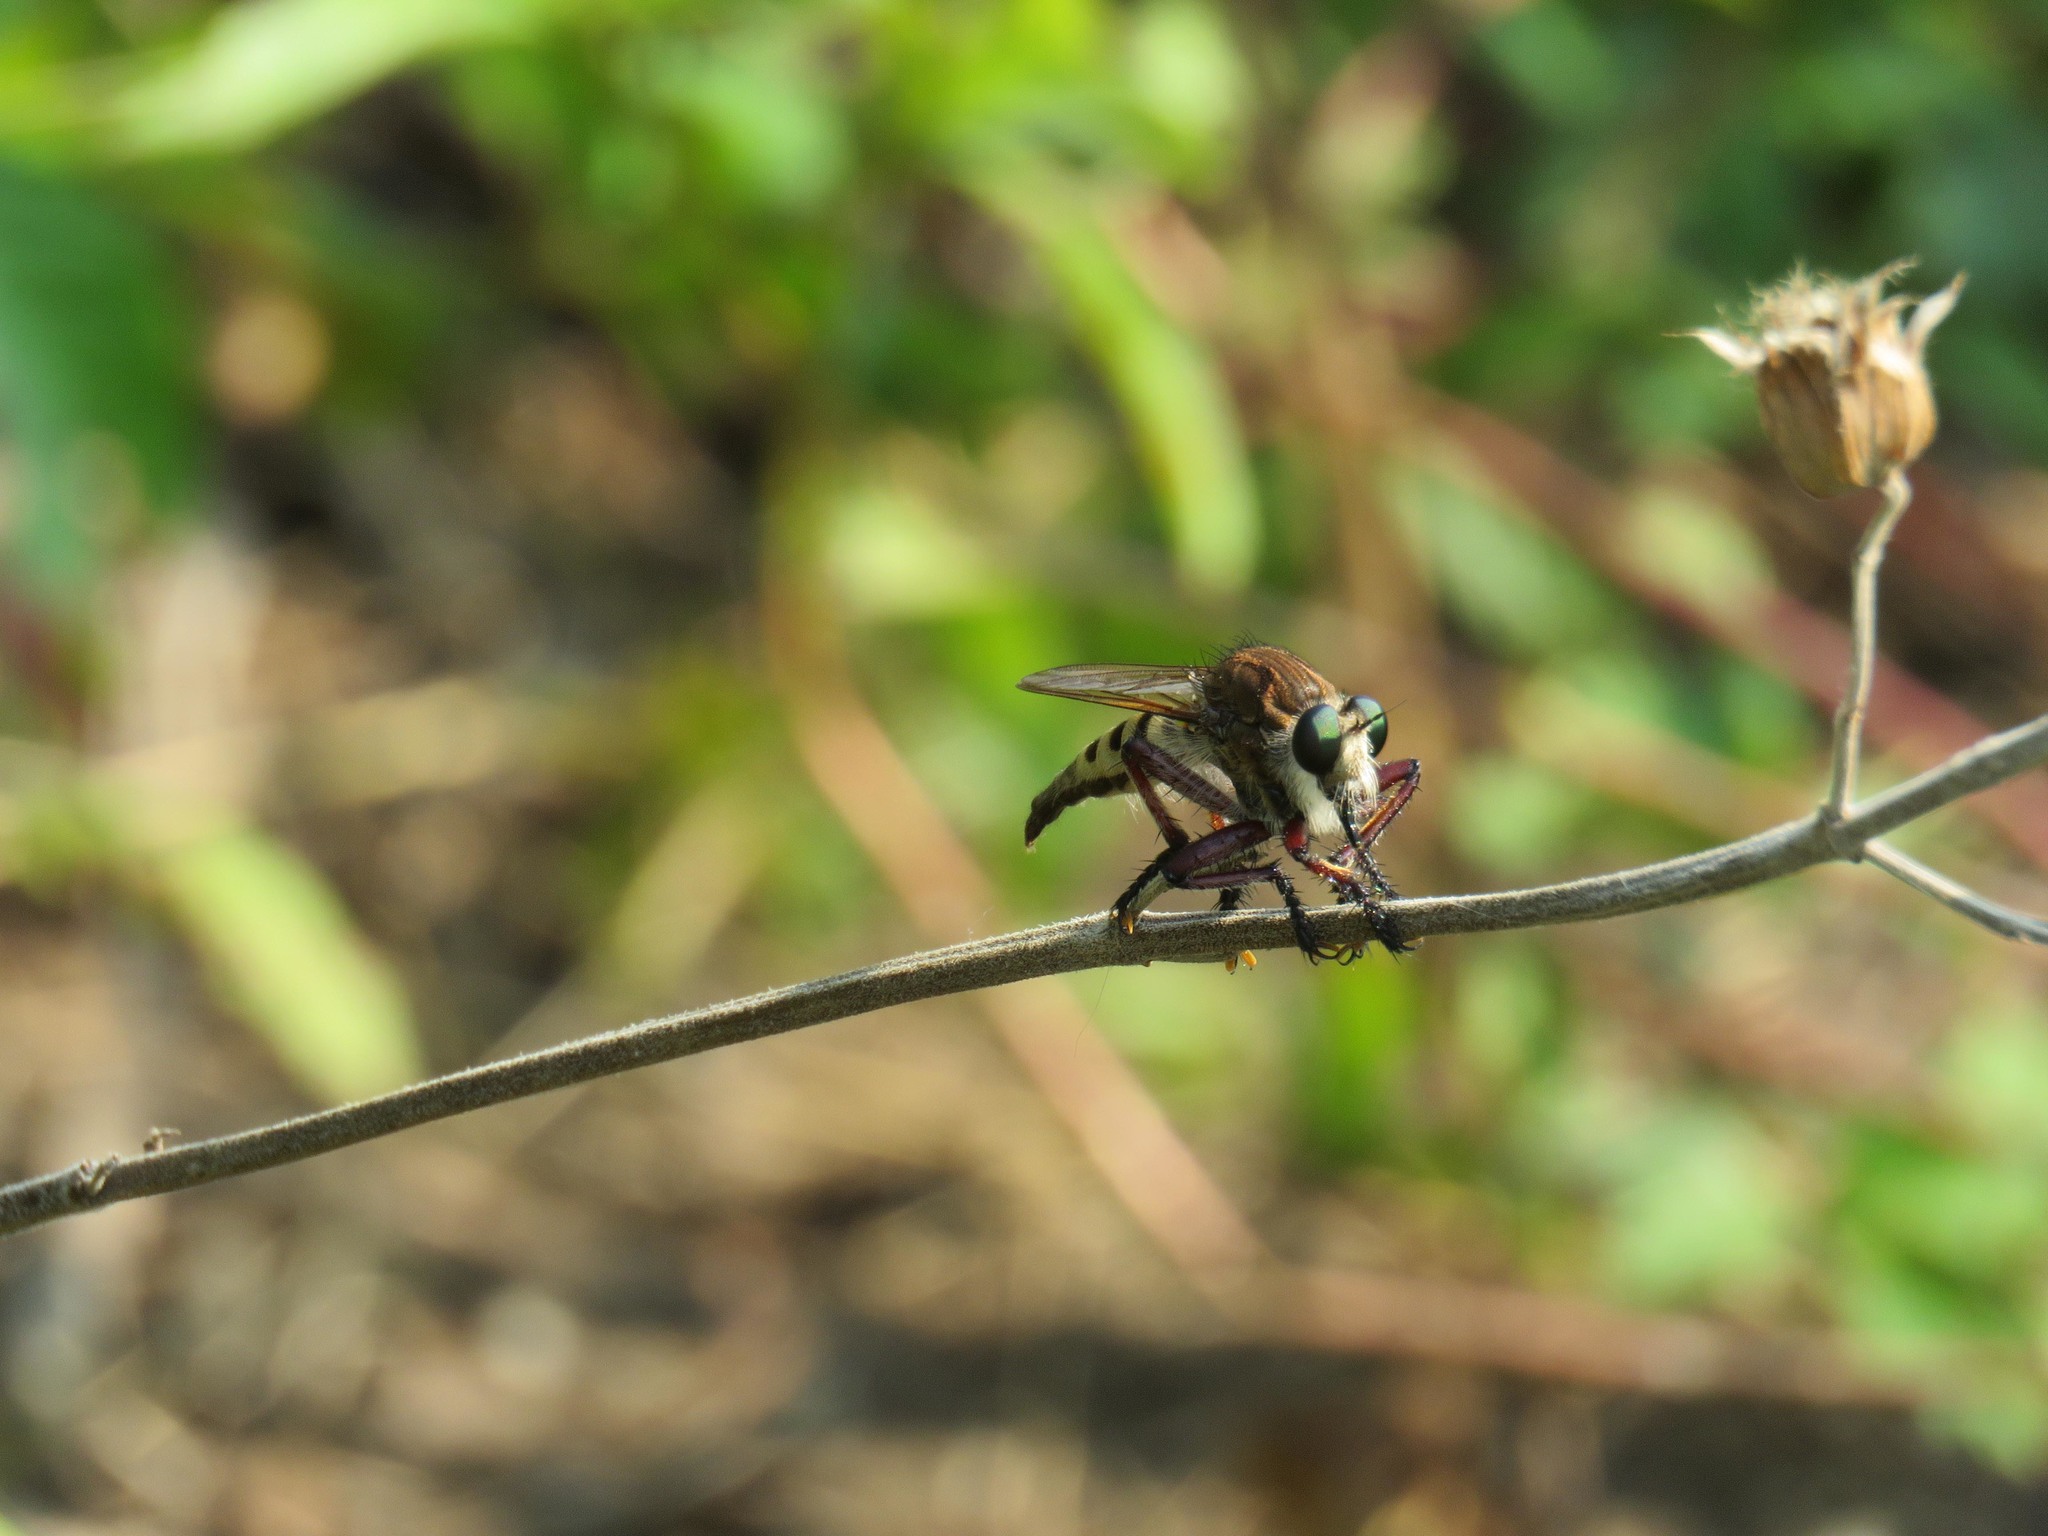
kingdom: Animalia
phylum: Arthropoda
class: Insecta
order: Diptera
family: Asilidae
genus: Promachus
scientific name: Promachus hinei
